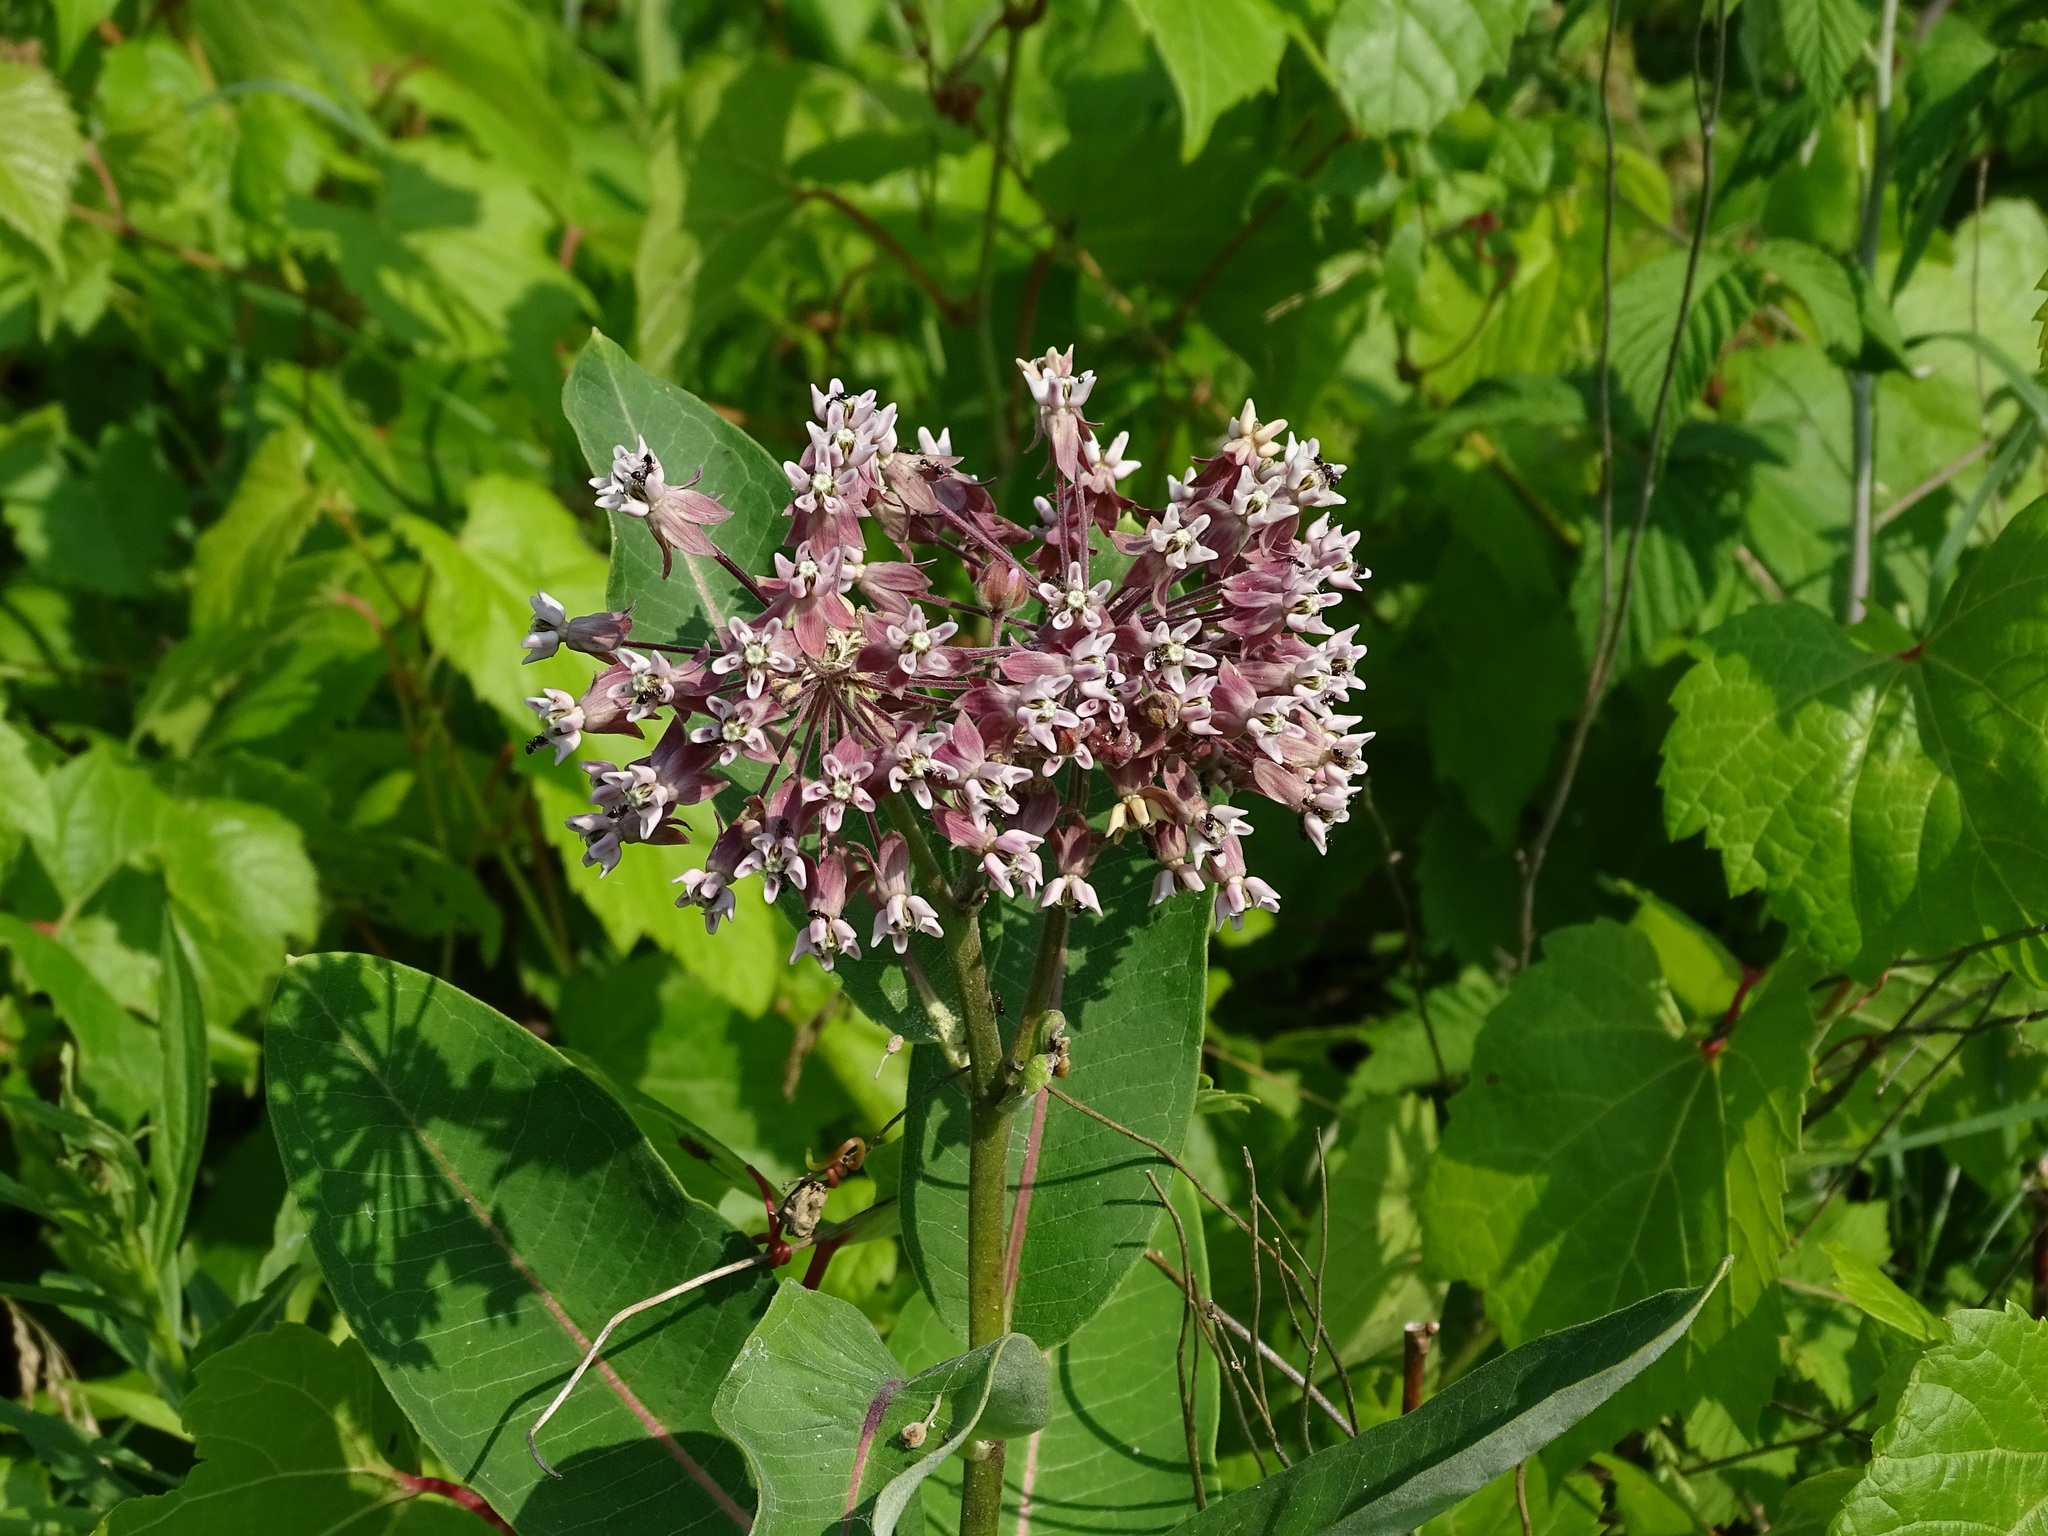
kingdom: Plantae
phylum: Tracheophyta
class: Magnoliopsida
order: Gentianales
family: Apocynaceae
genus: Asclepias
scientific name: Asclepias syriaca
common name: Common milkweed
